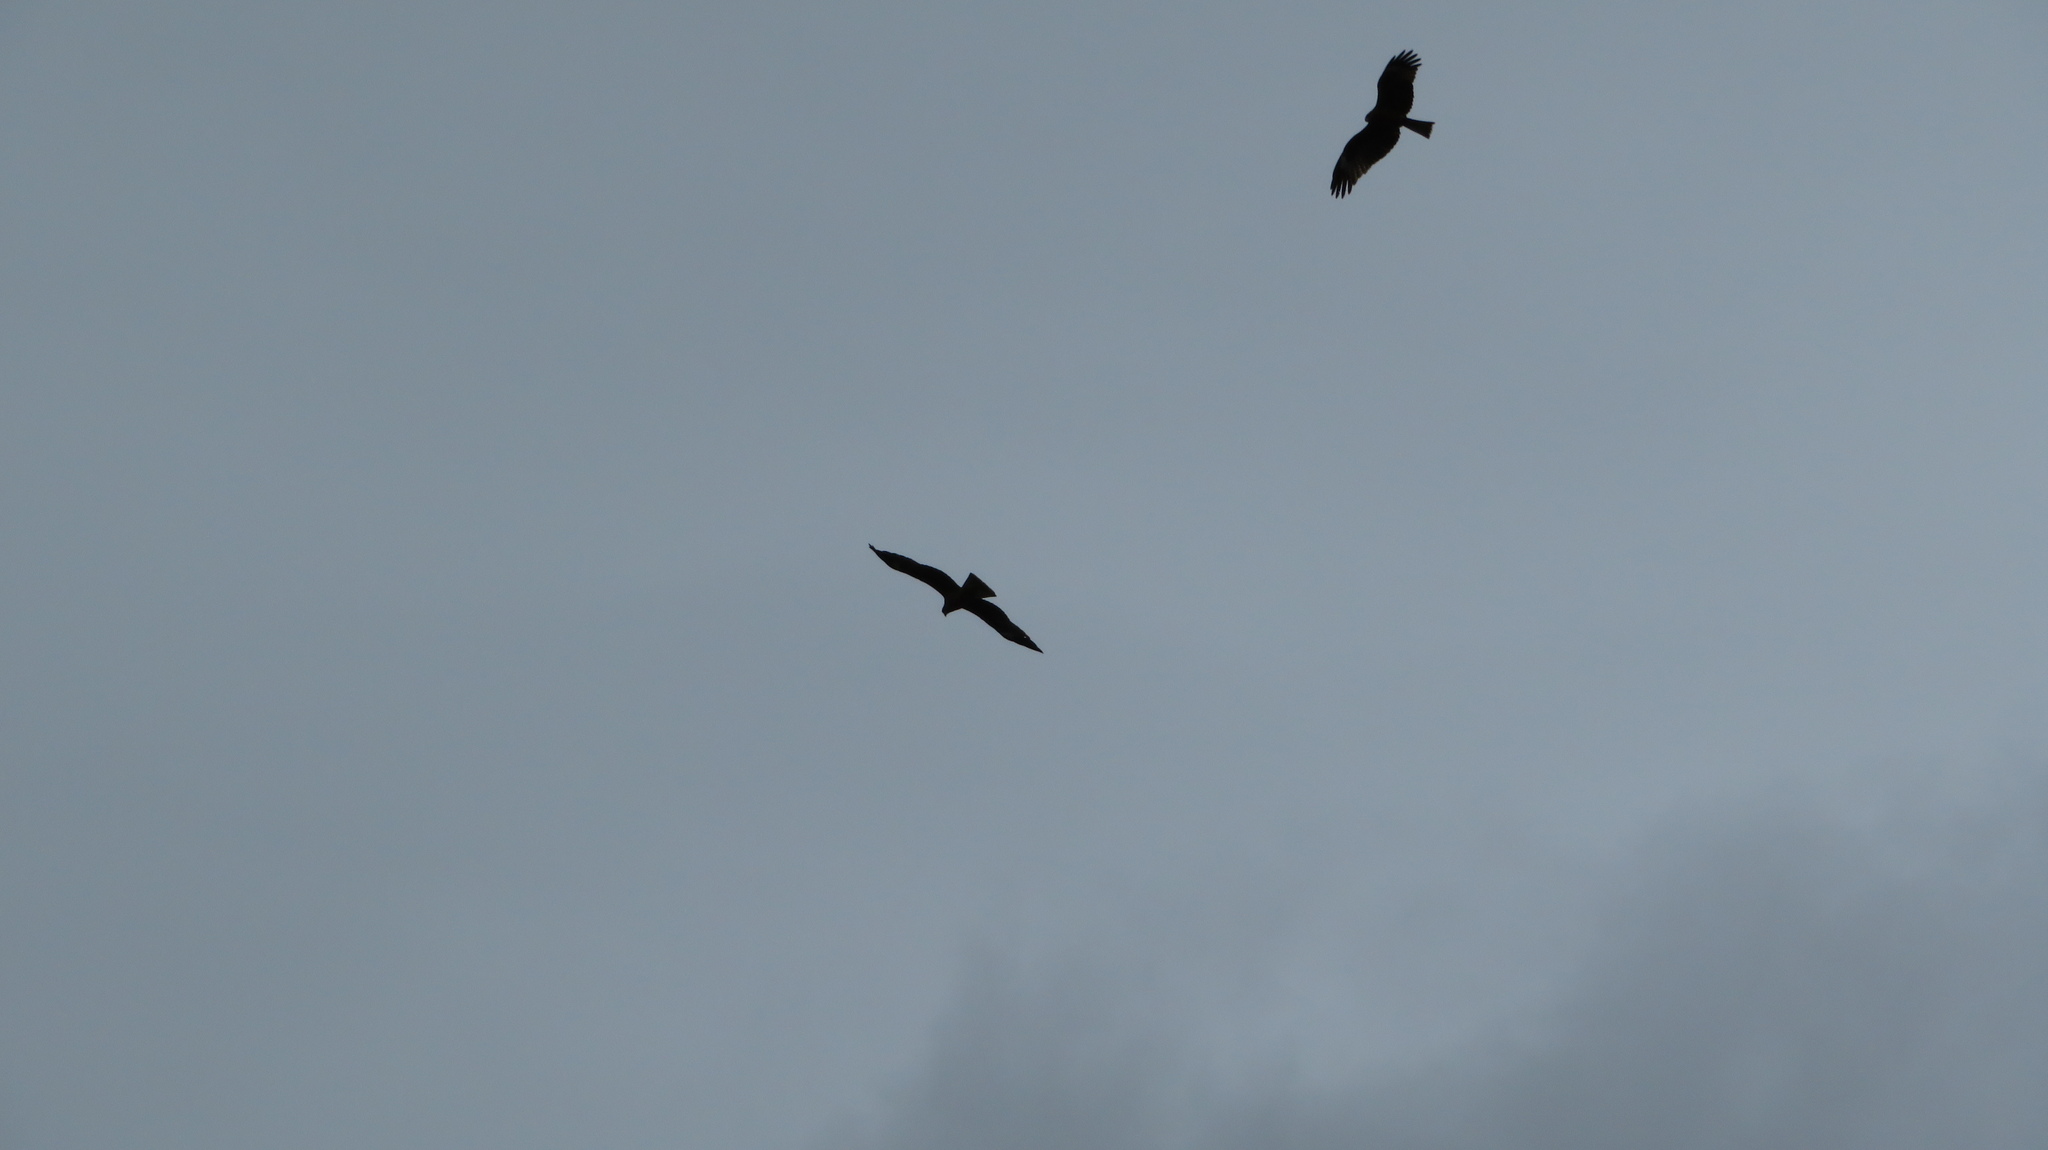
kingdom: Animalia
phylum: Chordata
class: Aves
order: Accipitriformes
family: Accipitridae
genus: Milvus
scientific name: Milvus migrans
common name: Black kite
